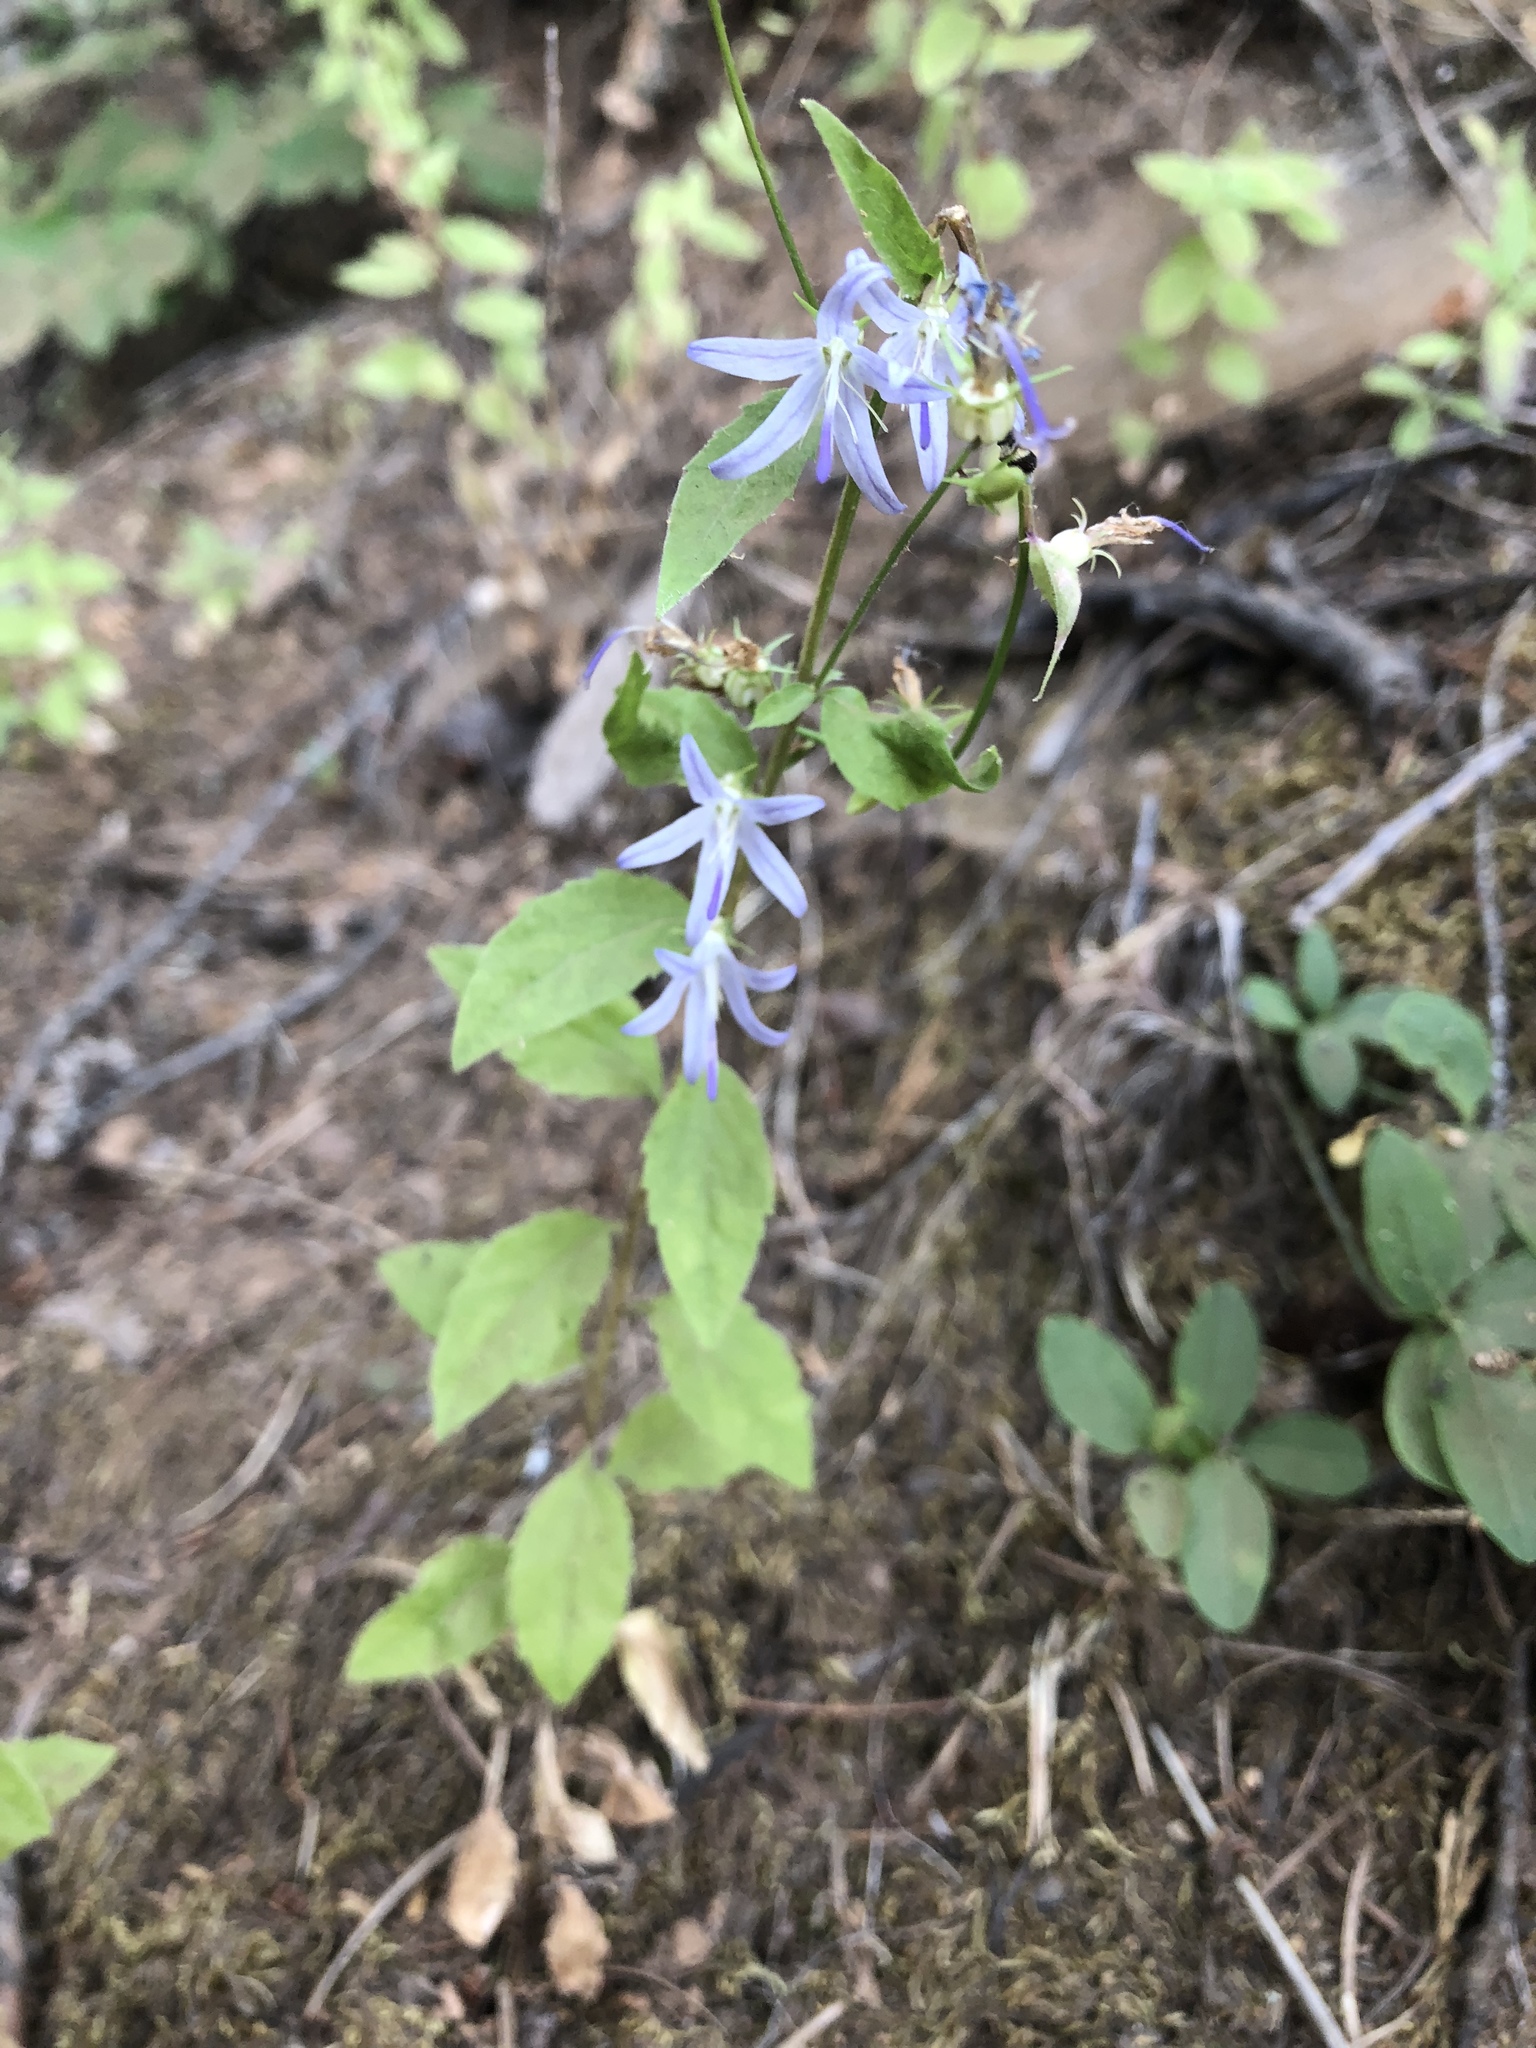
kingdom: Plantae
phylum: Tracheophyta
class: Magnoliopsida
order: Asterales
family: Campanulaceae
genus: Smithiastrum
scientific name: Smithiastrum prenanthoides
